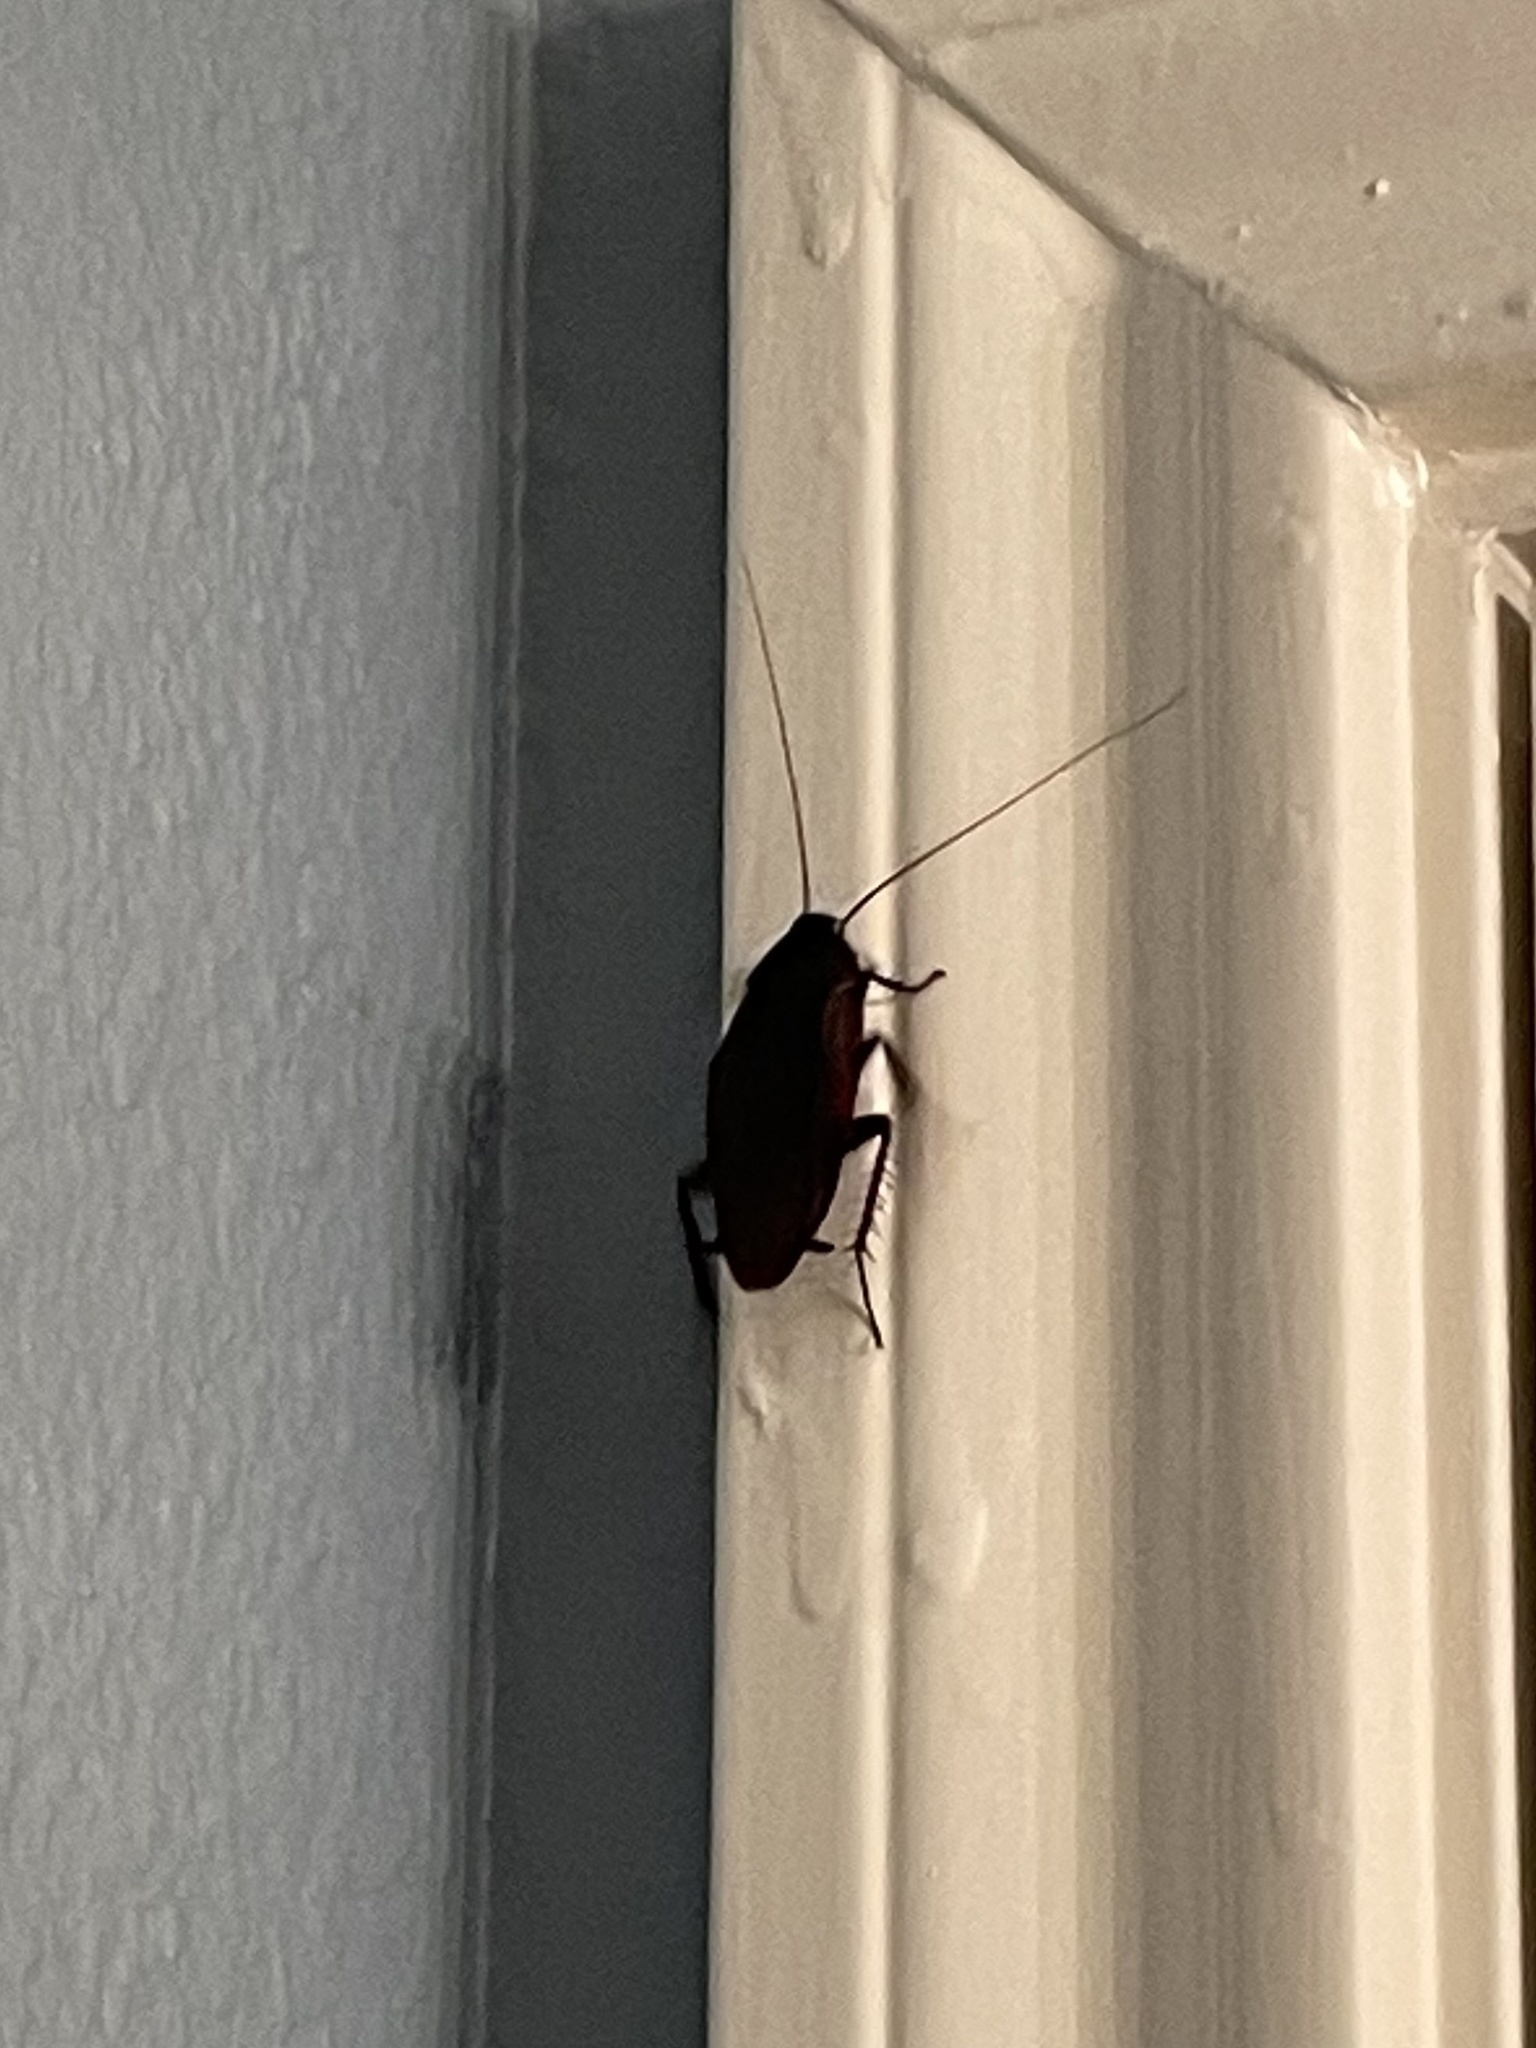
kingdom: Animalia
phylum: Arthropoda
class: Insecta
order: Blattodea
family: Blattidae
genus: Periplaneta
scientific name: Periplaneta fuliginosa
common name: Smokeybrown cockroad
